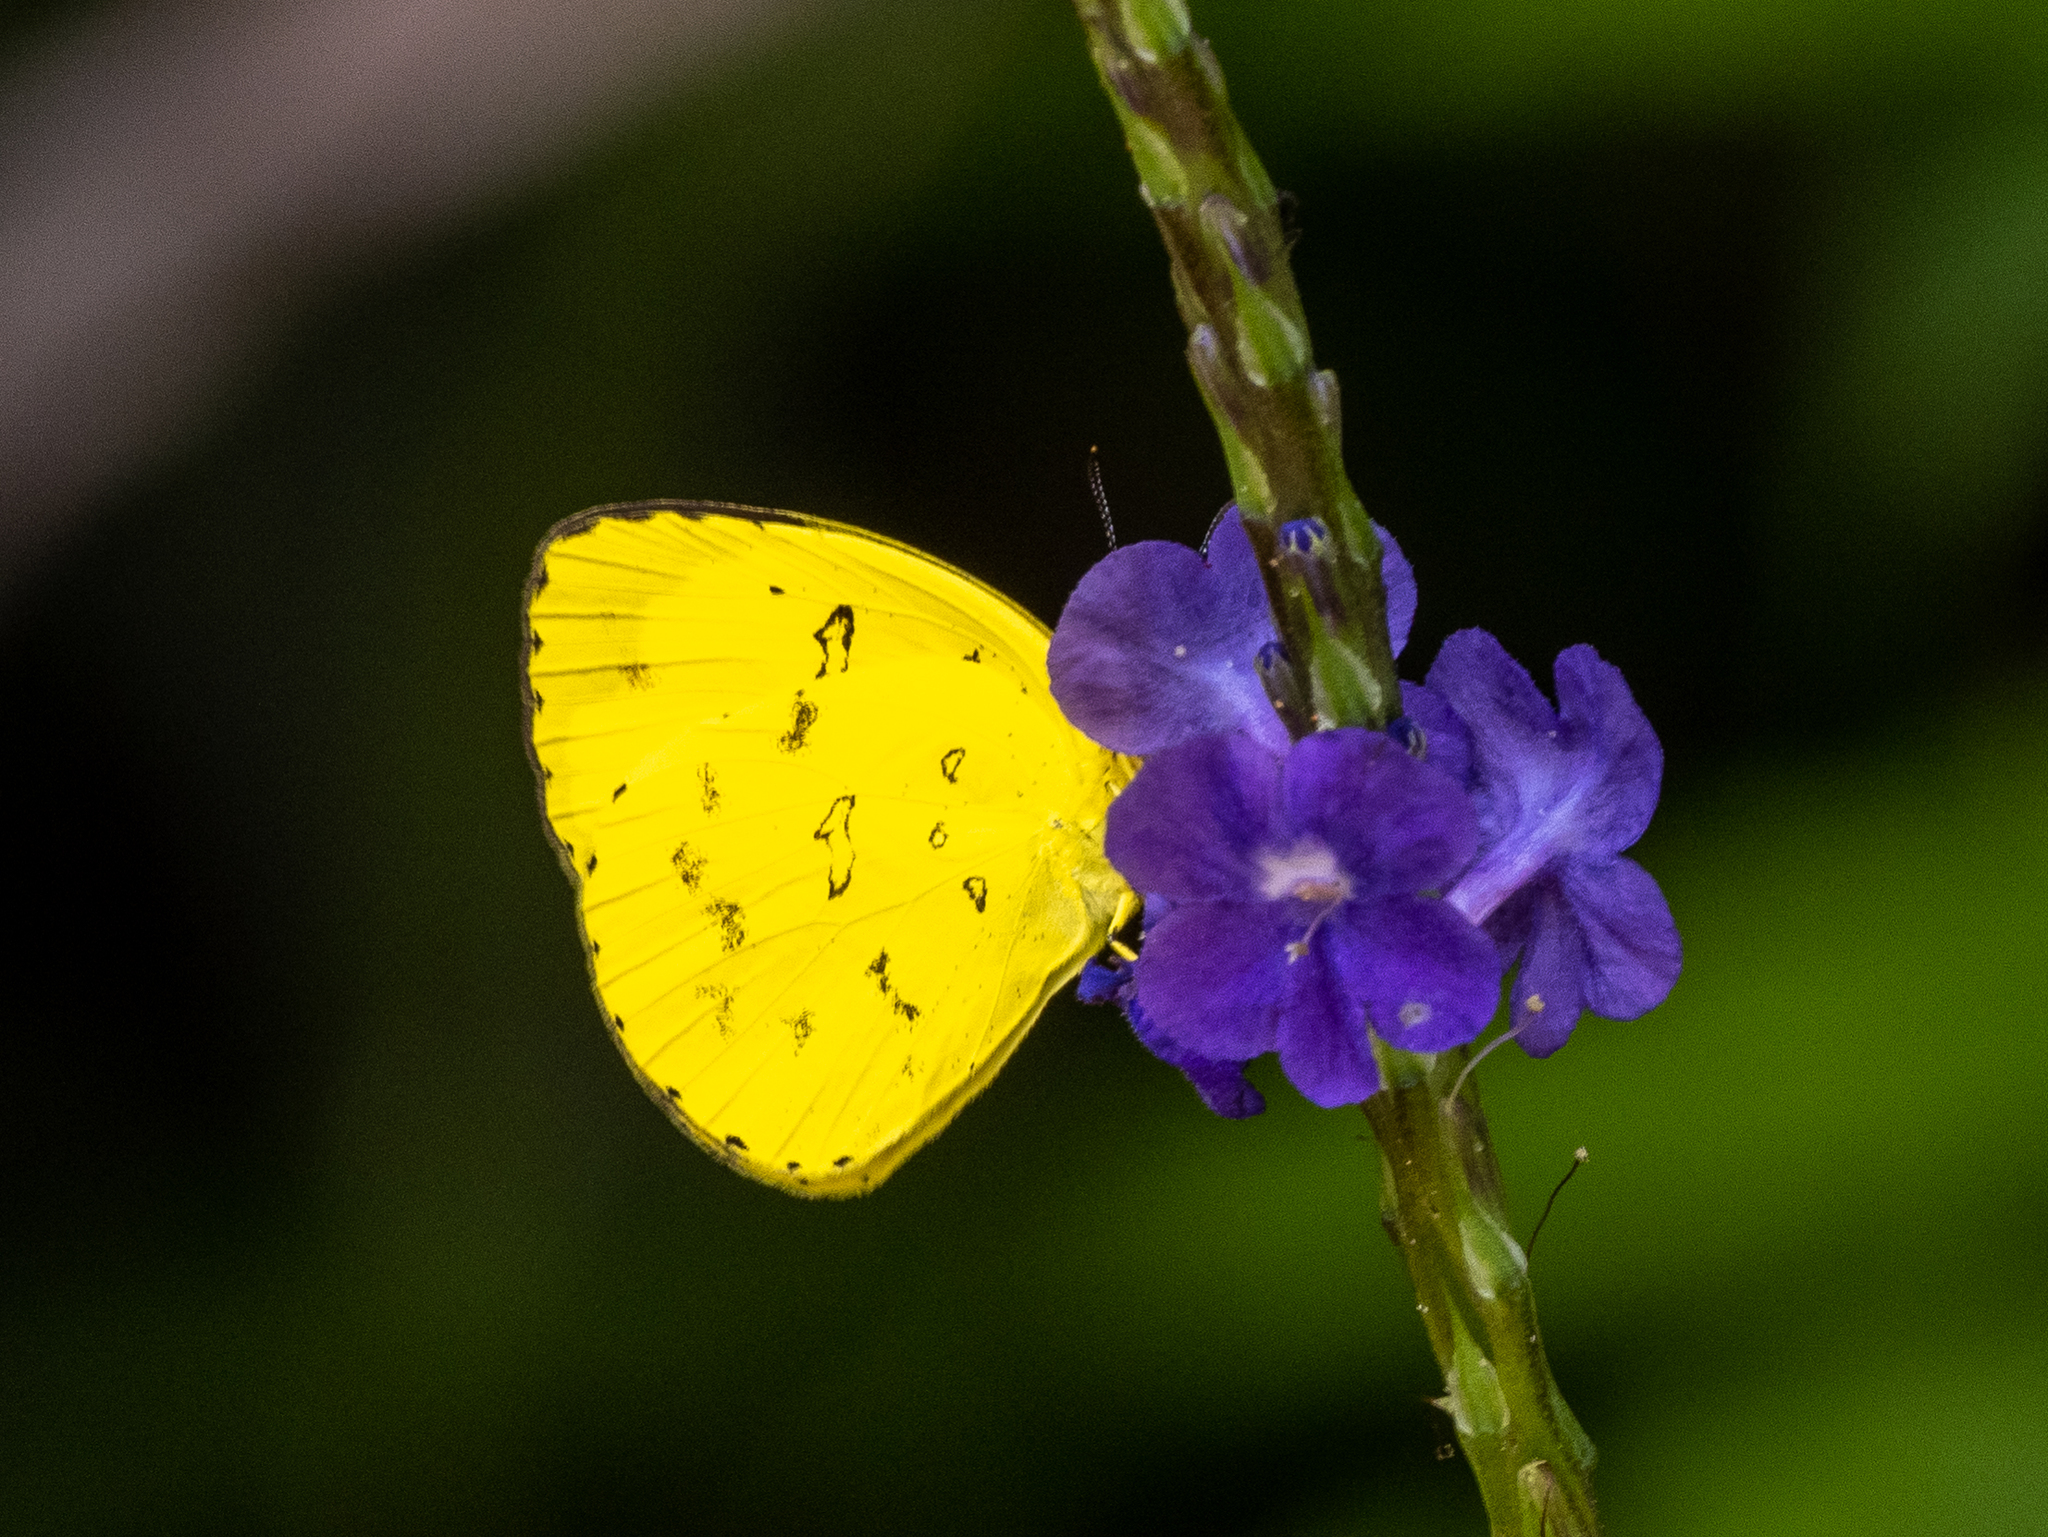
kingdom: Animalia
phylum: Arthropoda
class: Insecta
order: Lepidoptera
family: Pieridae
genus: Eurema
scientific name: Eurema hecabe
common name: Pale grass yellow
